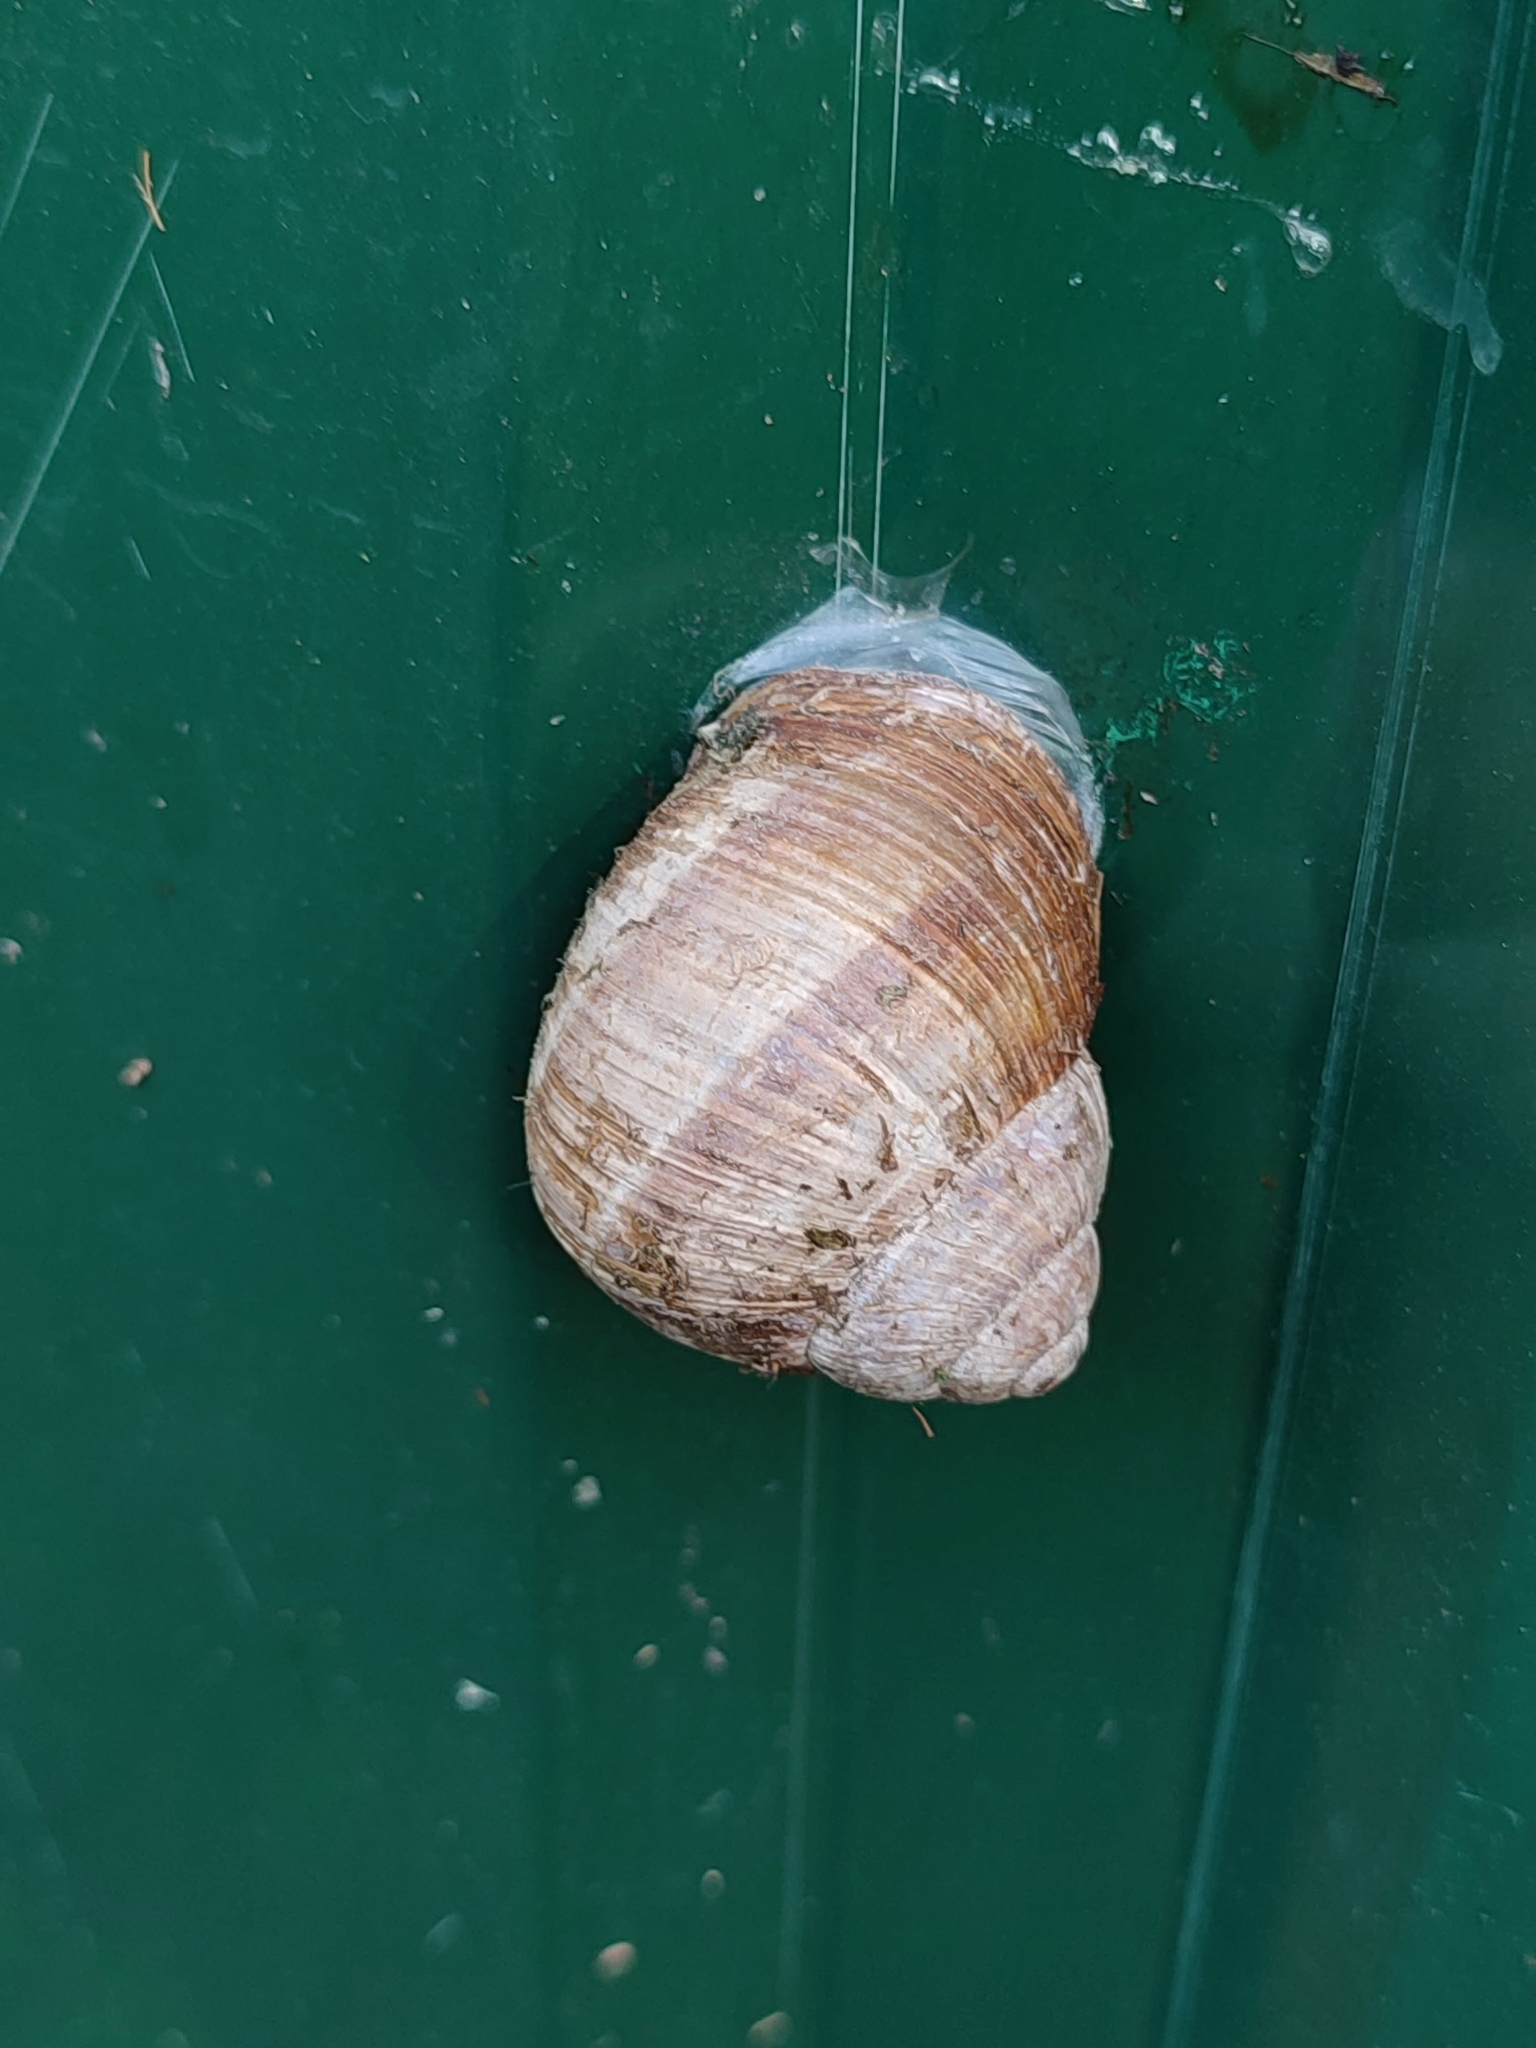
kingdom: Animalia
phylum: Mollusca
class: Gastropoda
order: Stylommatophora
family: Helicidae
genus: Helix
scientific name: Helix pomatia
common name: Roman snail
